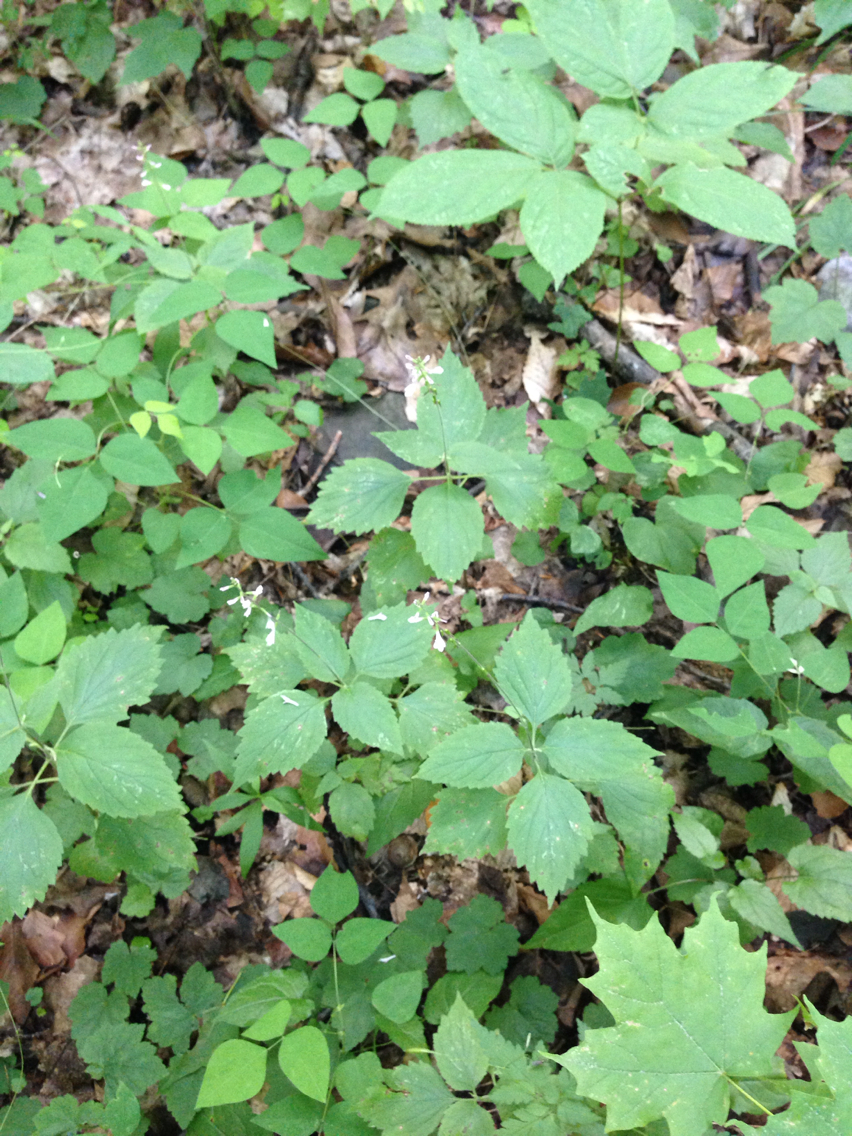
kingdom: Plantae
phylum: Tracheophyta
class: Magnoliopsida
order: Lamiales
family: Phrymaceae
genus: Phryma
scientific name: Phryma leptostachya
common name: American lopseed
